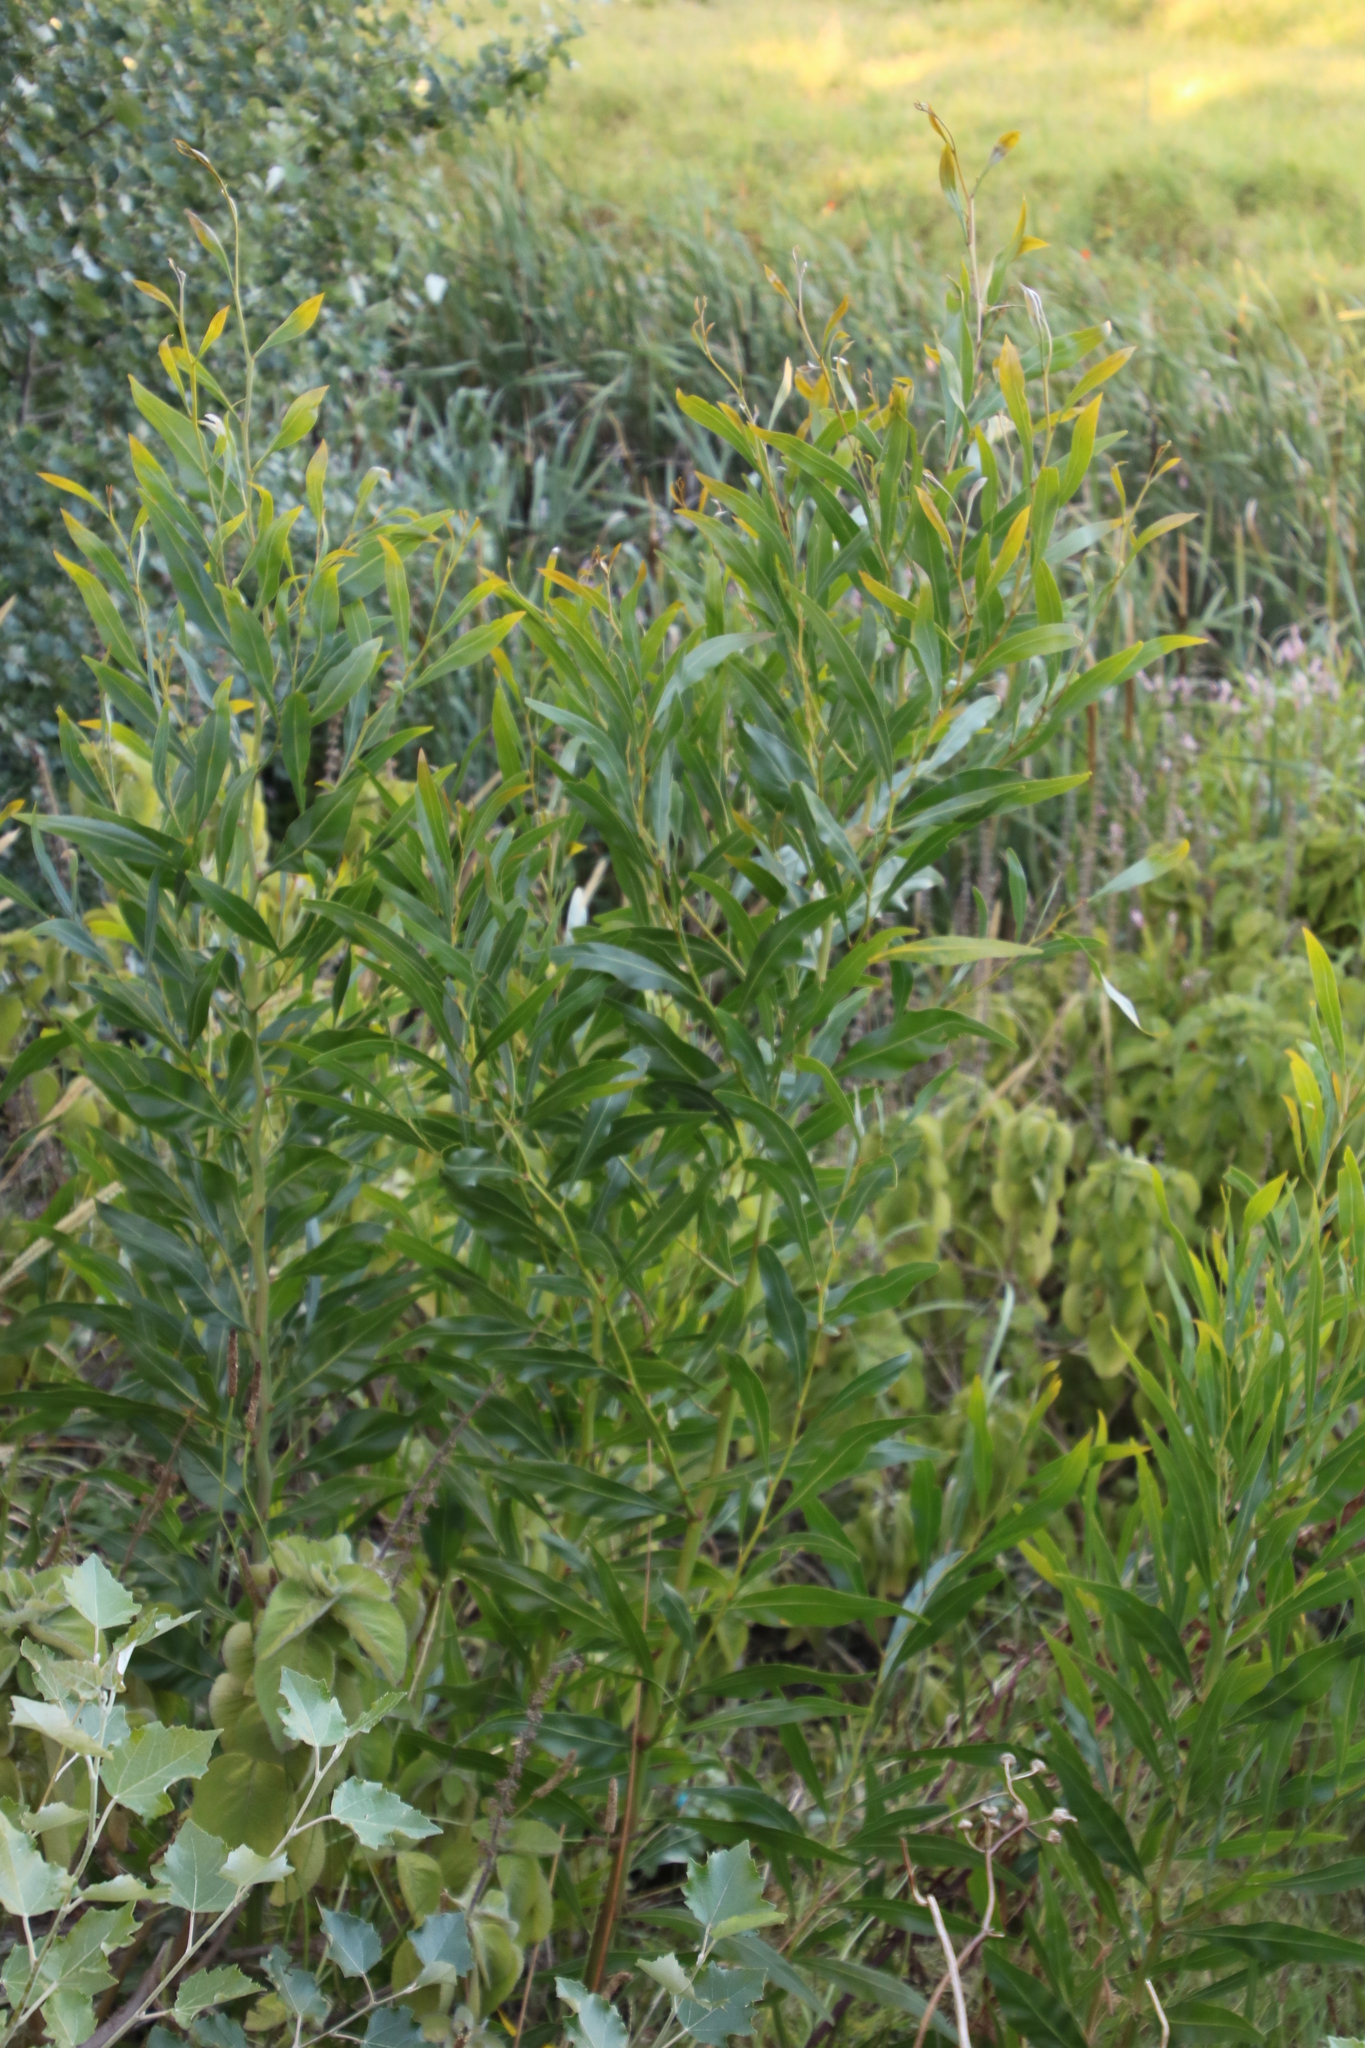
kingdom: Plantae
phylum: Tracheophyta
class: Magnoliopsida
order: Fabales
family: Fabaceae
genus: Acacia
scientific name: Acacia saligna
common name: Orange wattle
